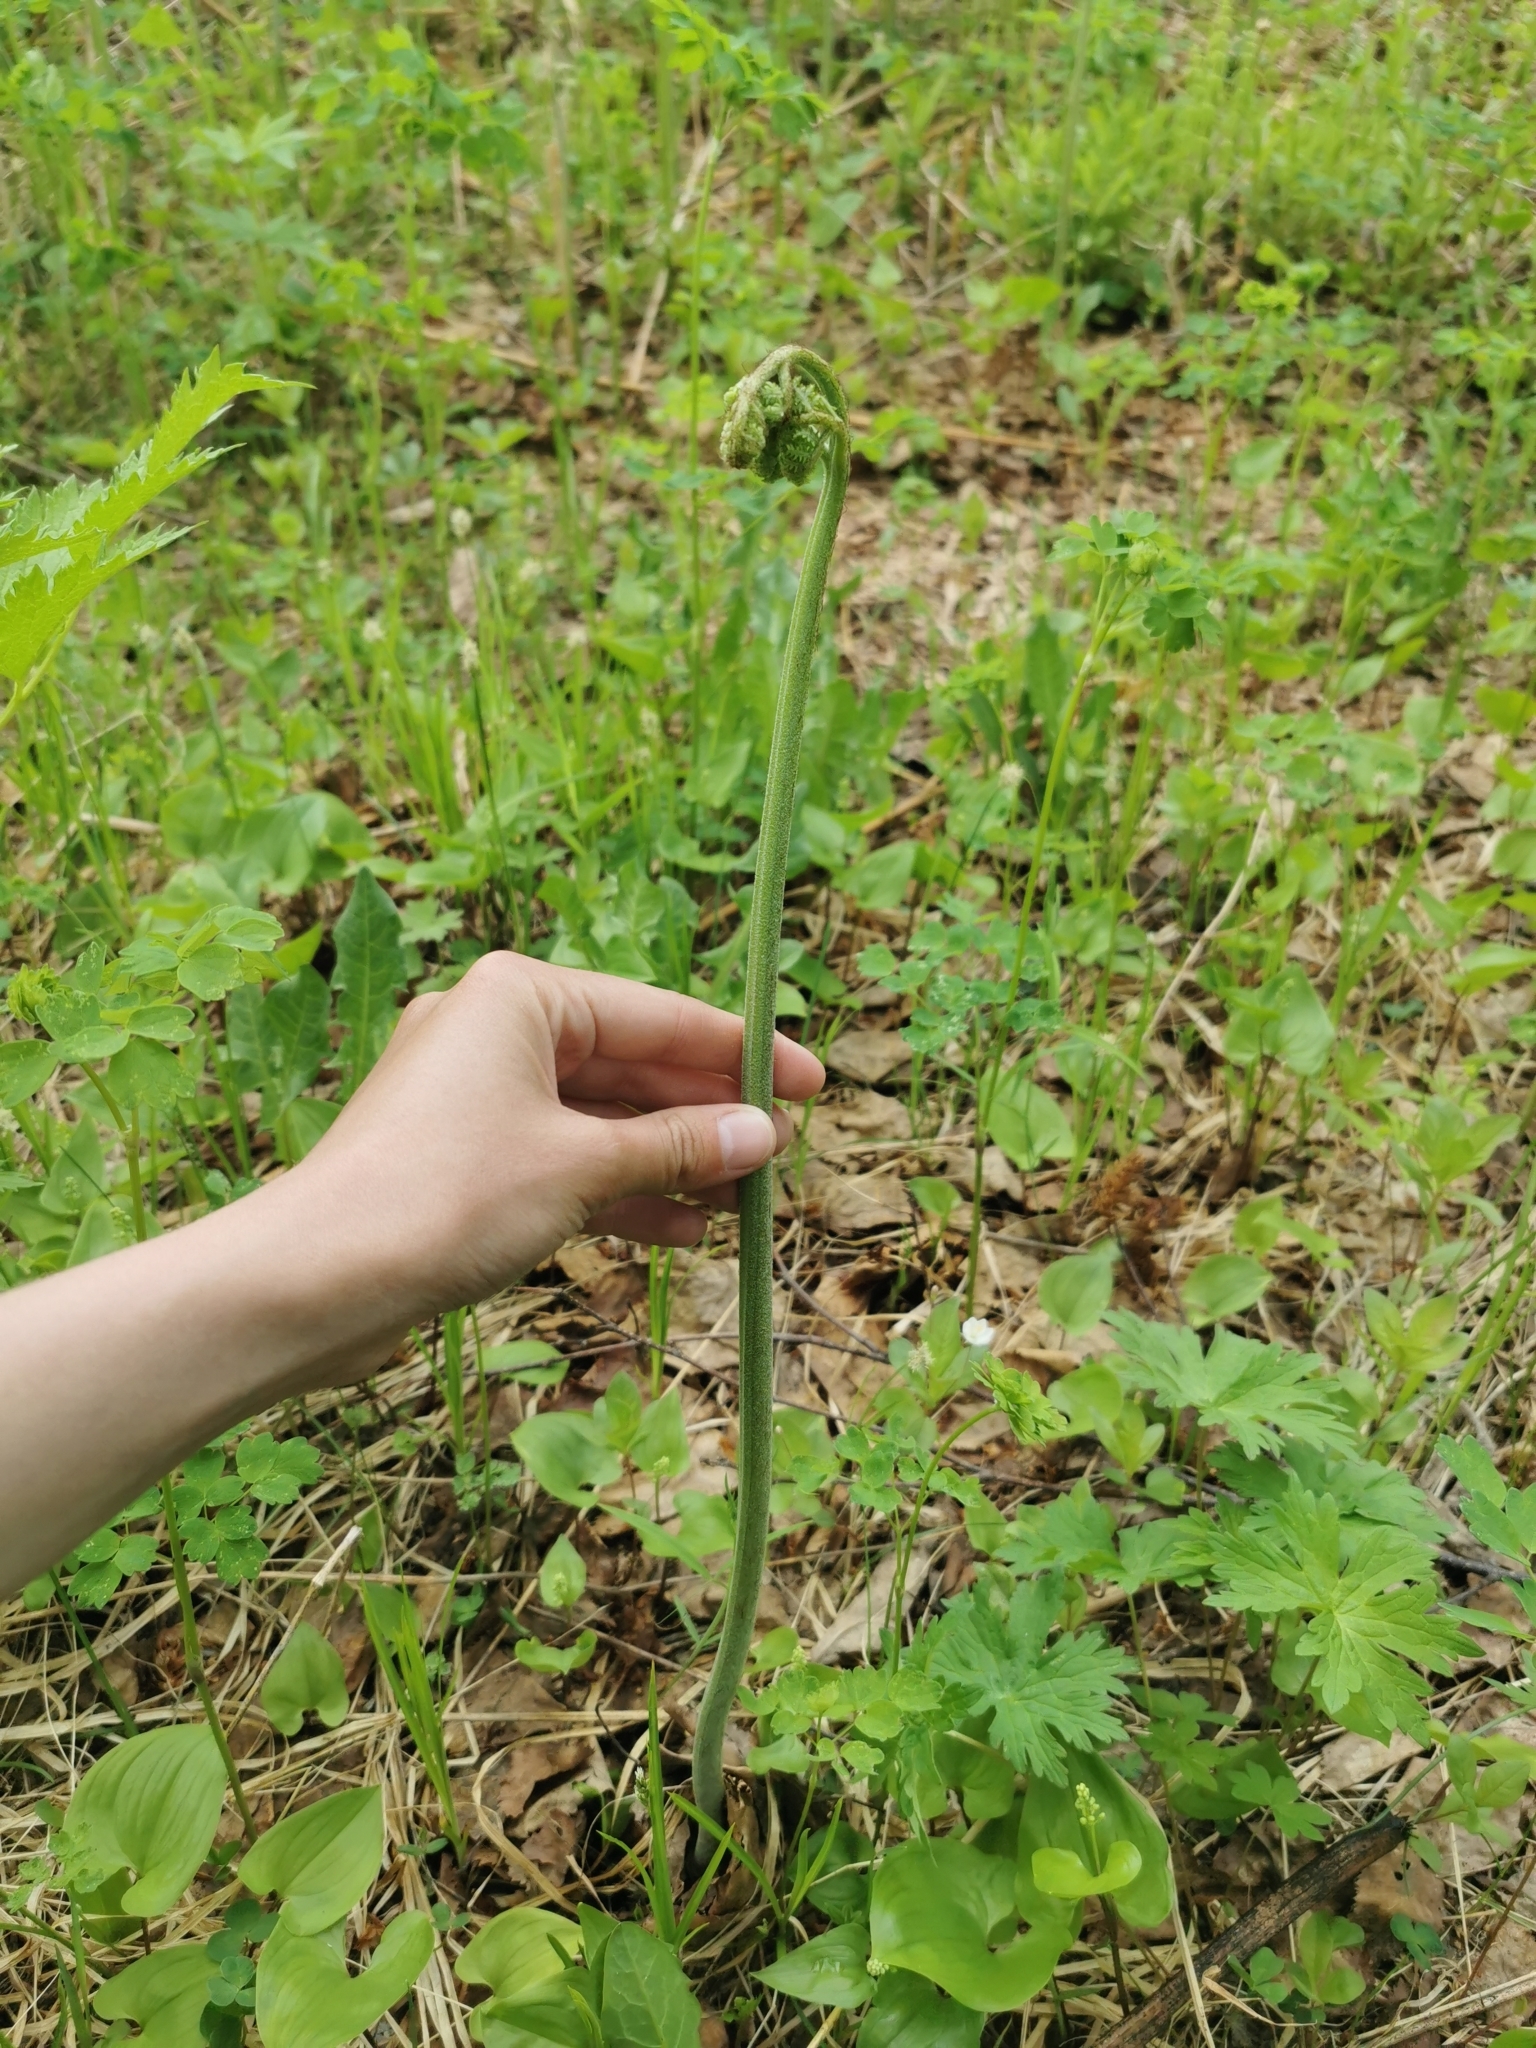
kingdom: Plantae
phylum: Tracheophyta
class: Polypodiopsida
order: Polypodiales
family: Dennstaedtiaceae
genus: Pteridium
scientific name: Pteridium aquilinum
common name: Bracken
